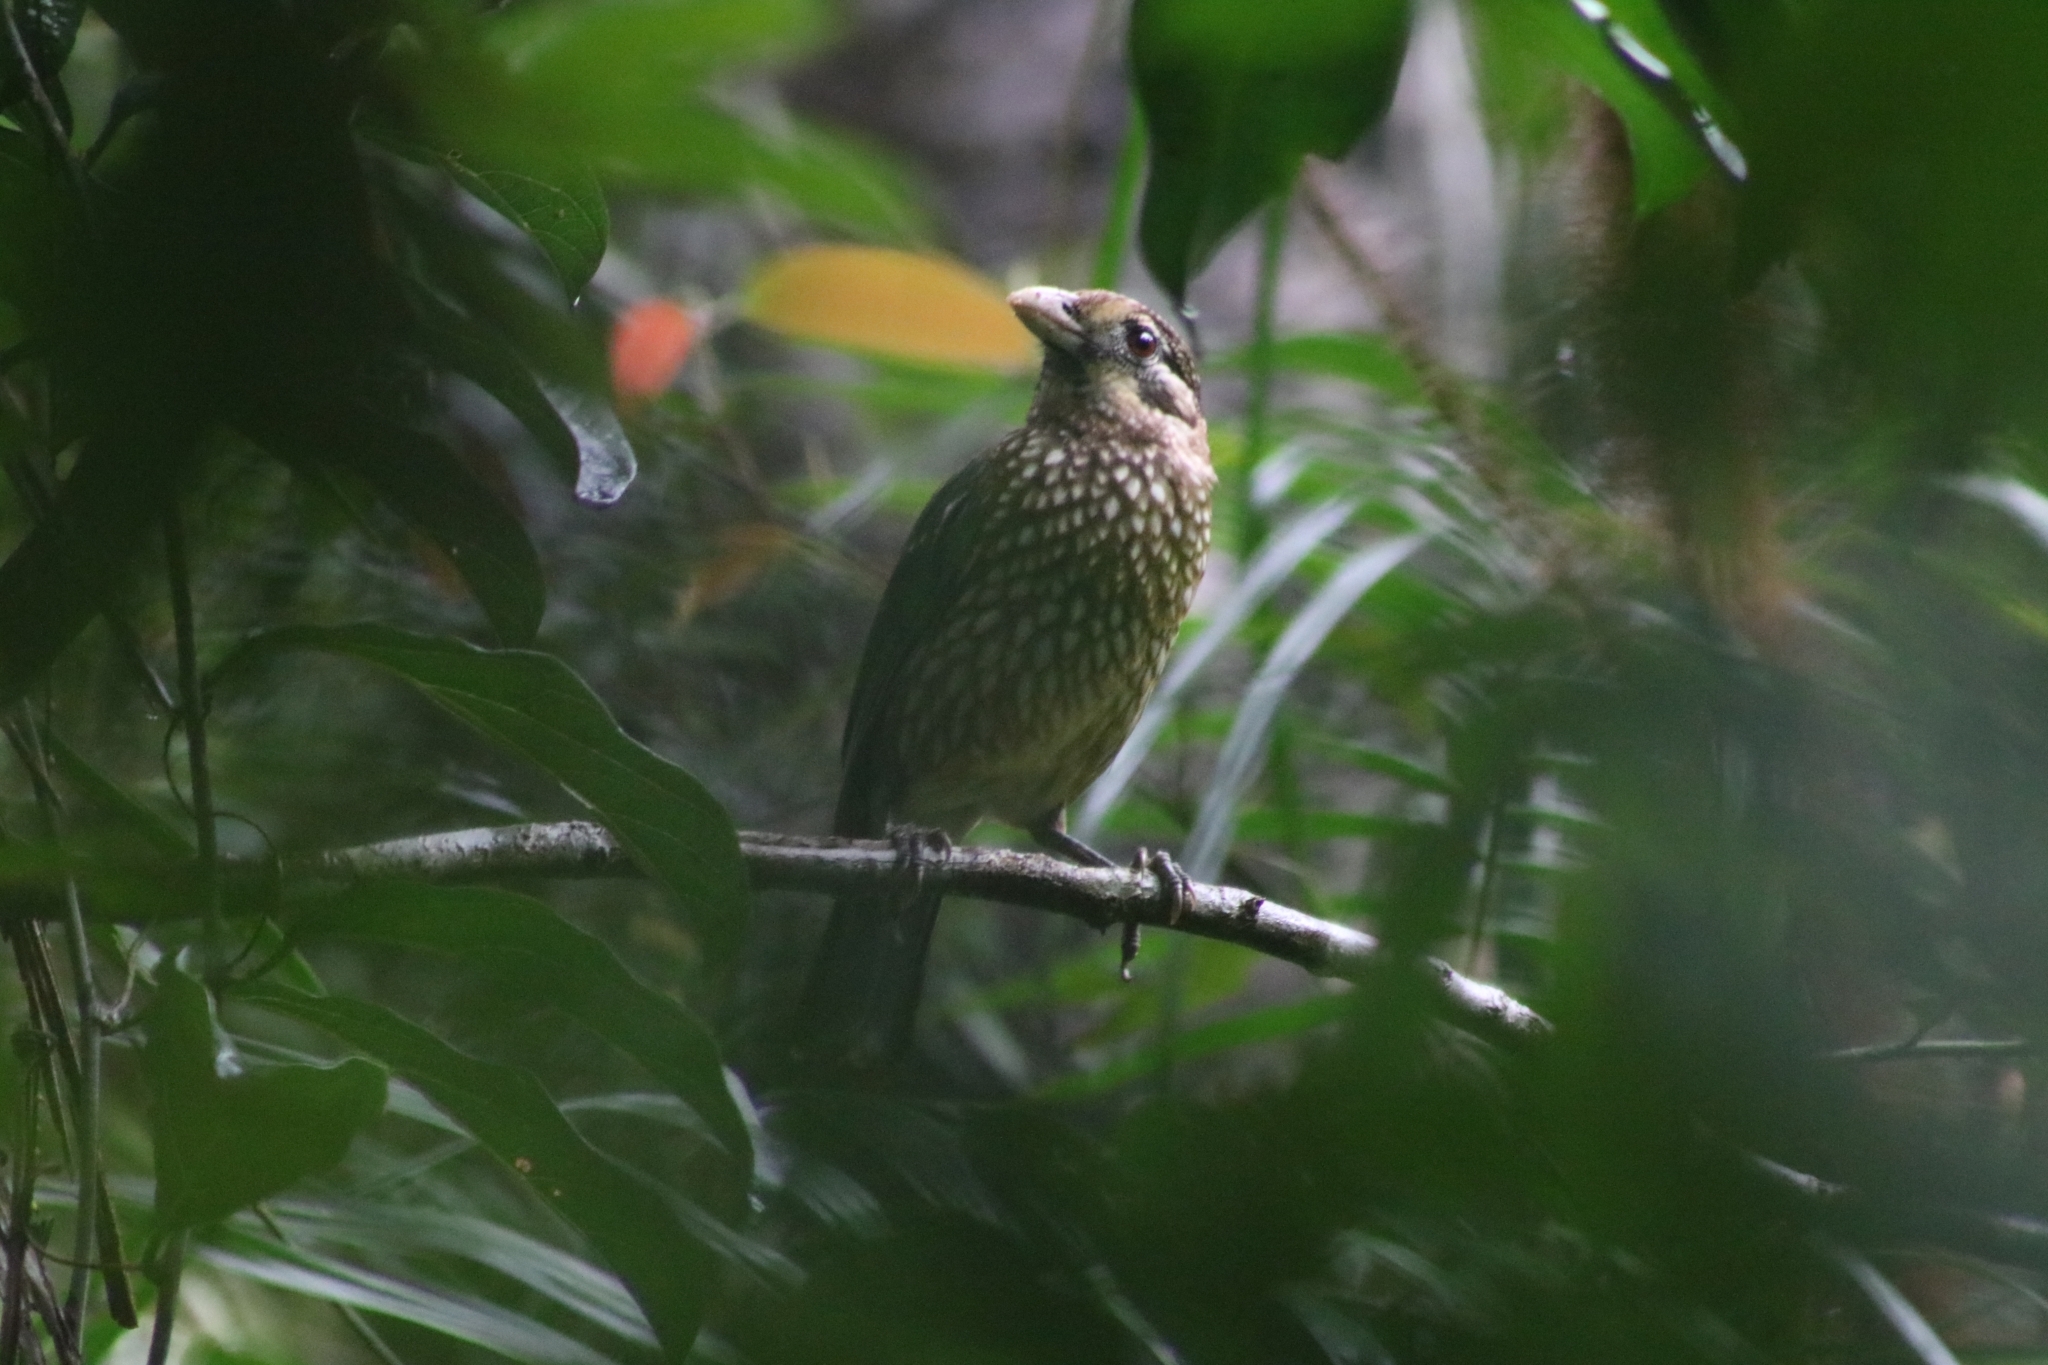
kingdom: Animalia
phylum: Chordata
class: Aves
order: Passeriformes
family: Ptilonorhynchidae
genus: Ailuroedus
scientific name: Ailuroedus maculosus
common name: Spotted catbird
